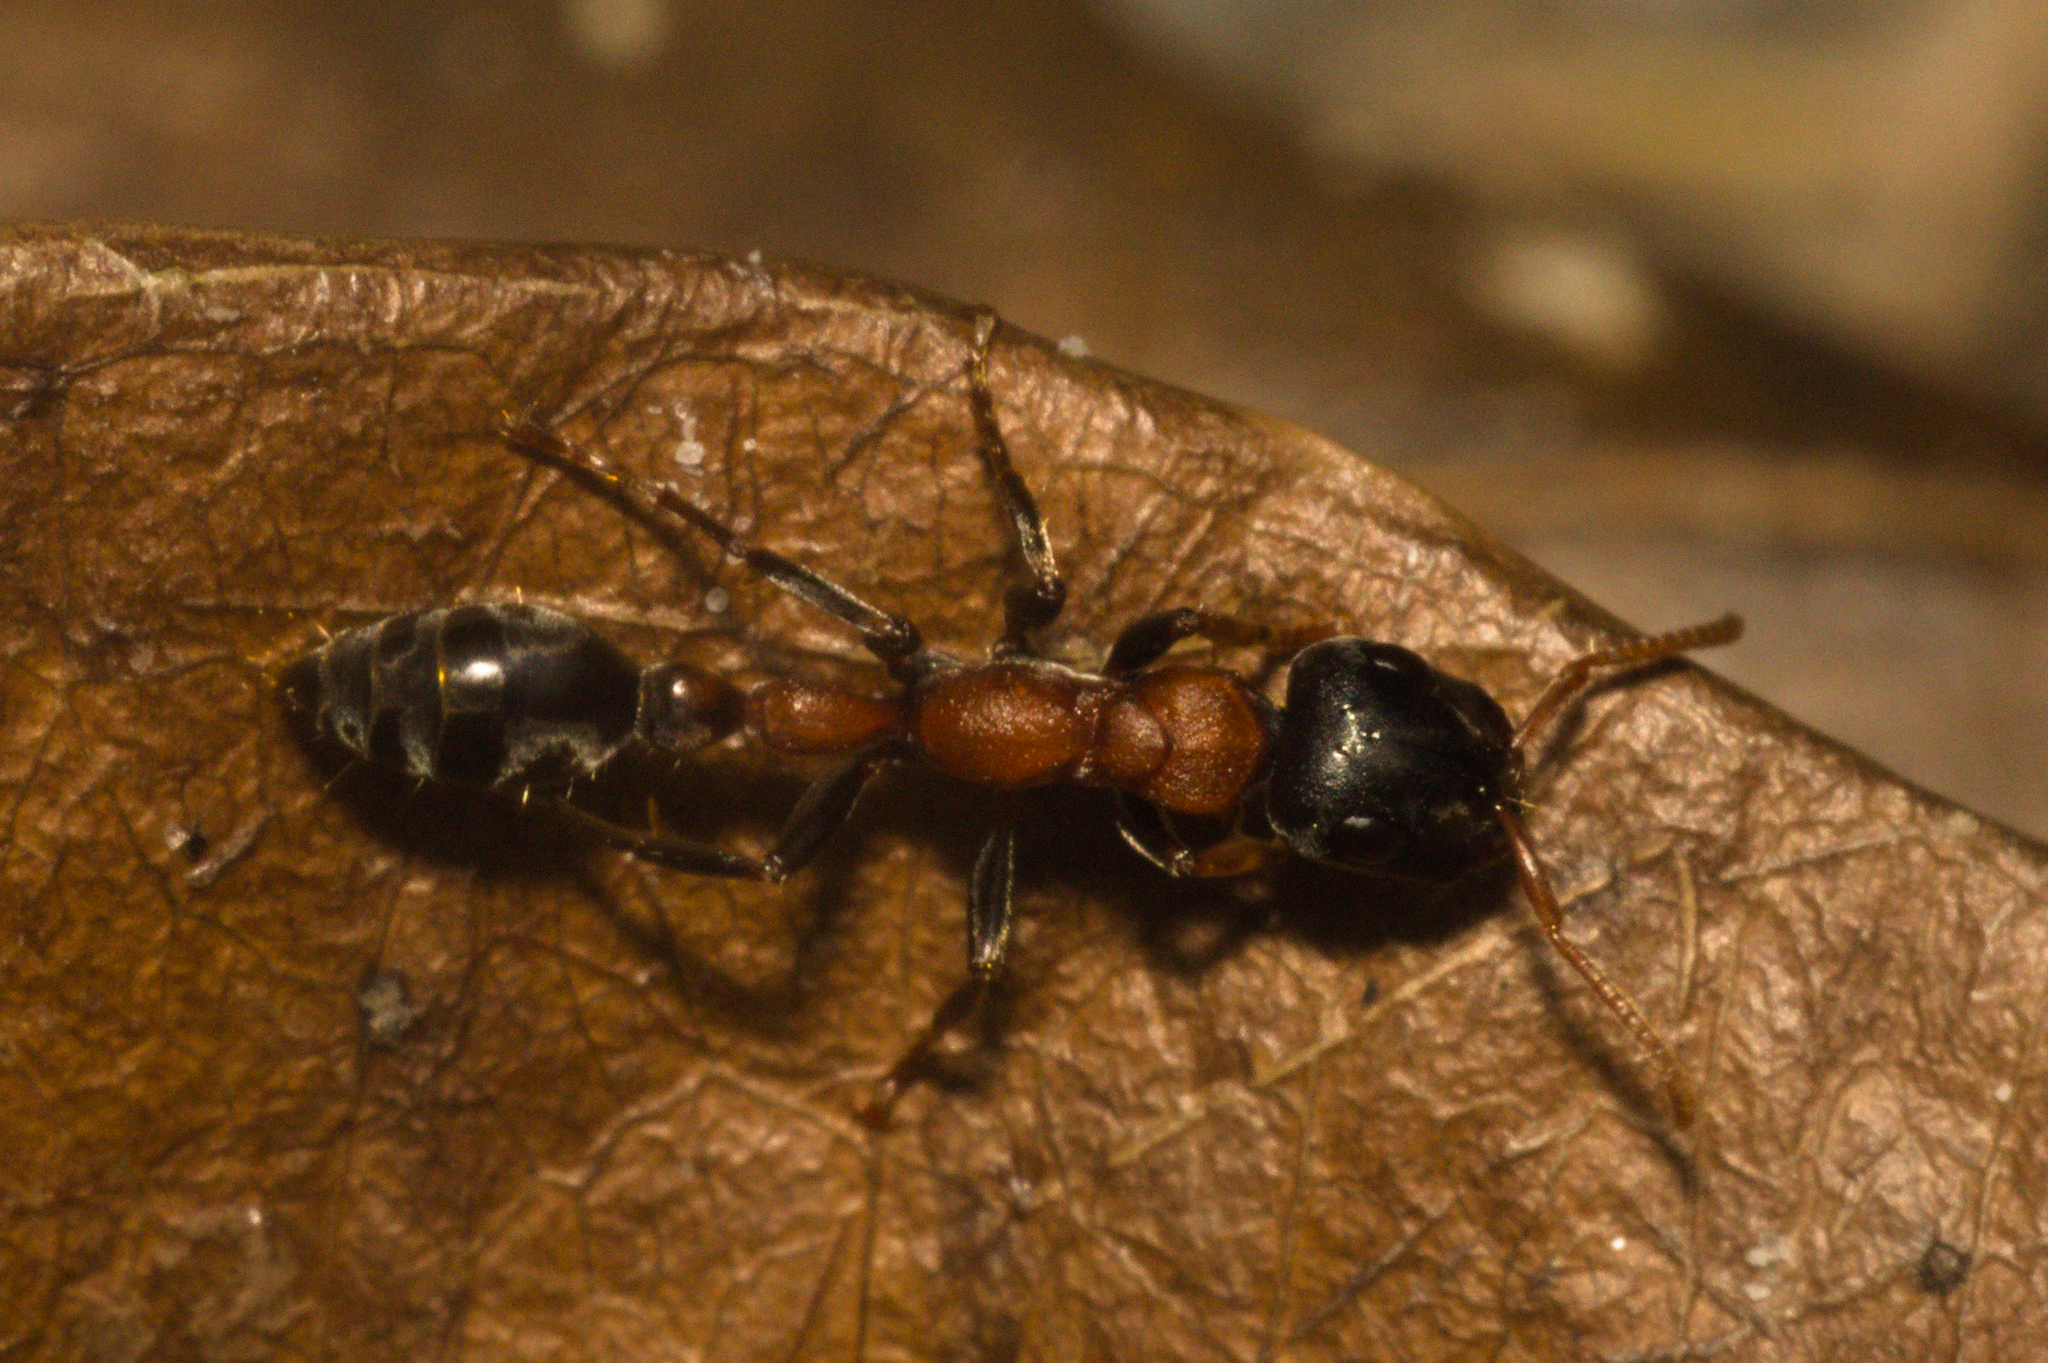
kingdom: Animalia
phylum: Arthropoda
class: Insecta
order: Hymenoptera
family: Formicidae
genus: Tetraponera
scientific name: Tetraponera rufonigra
